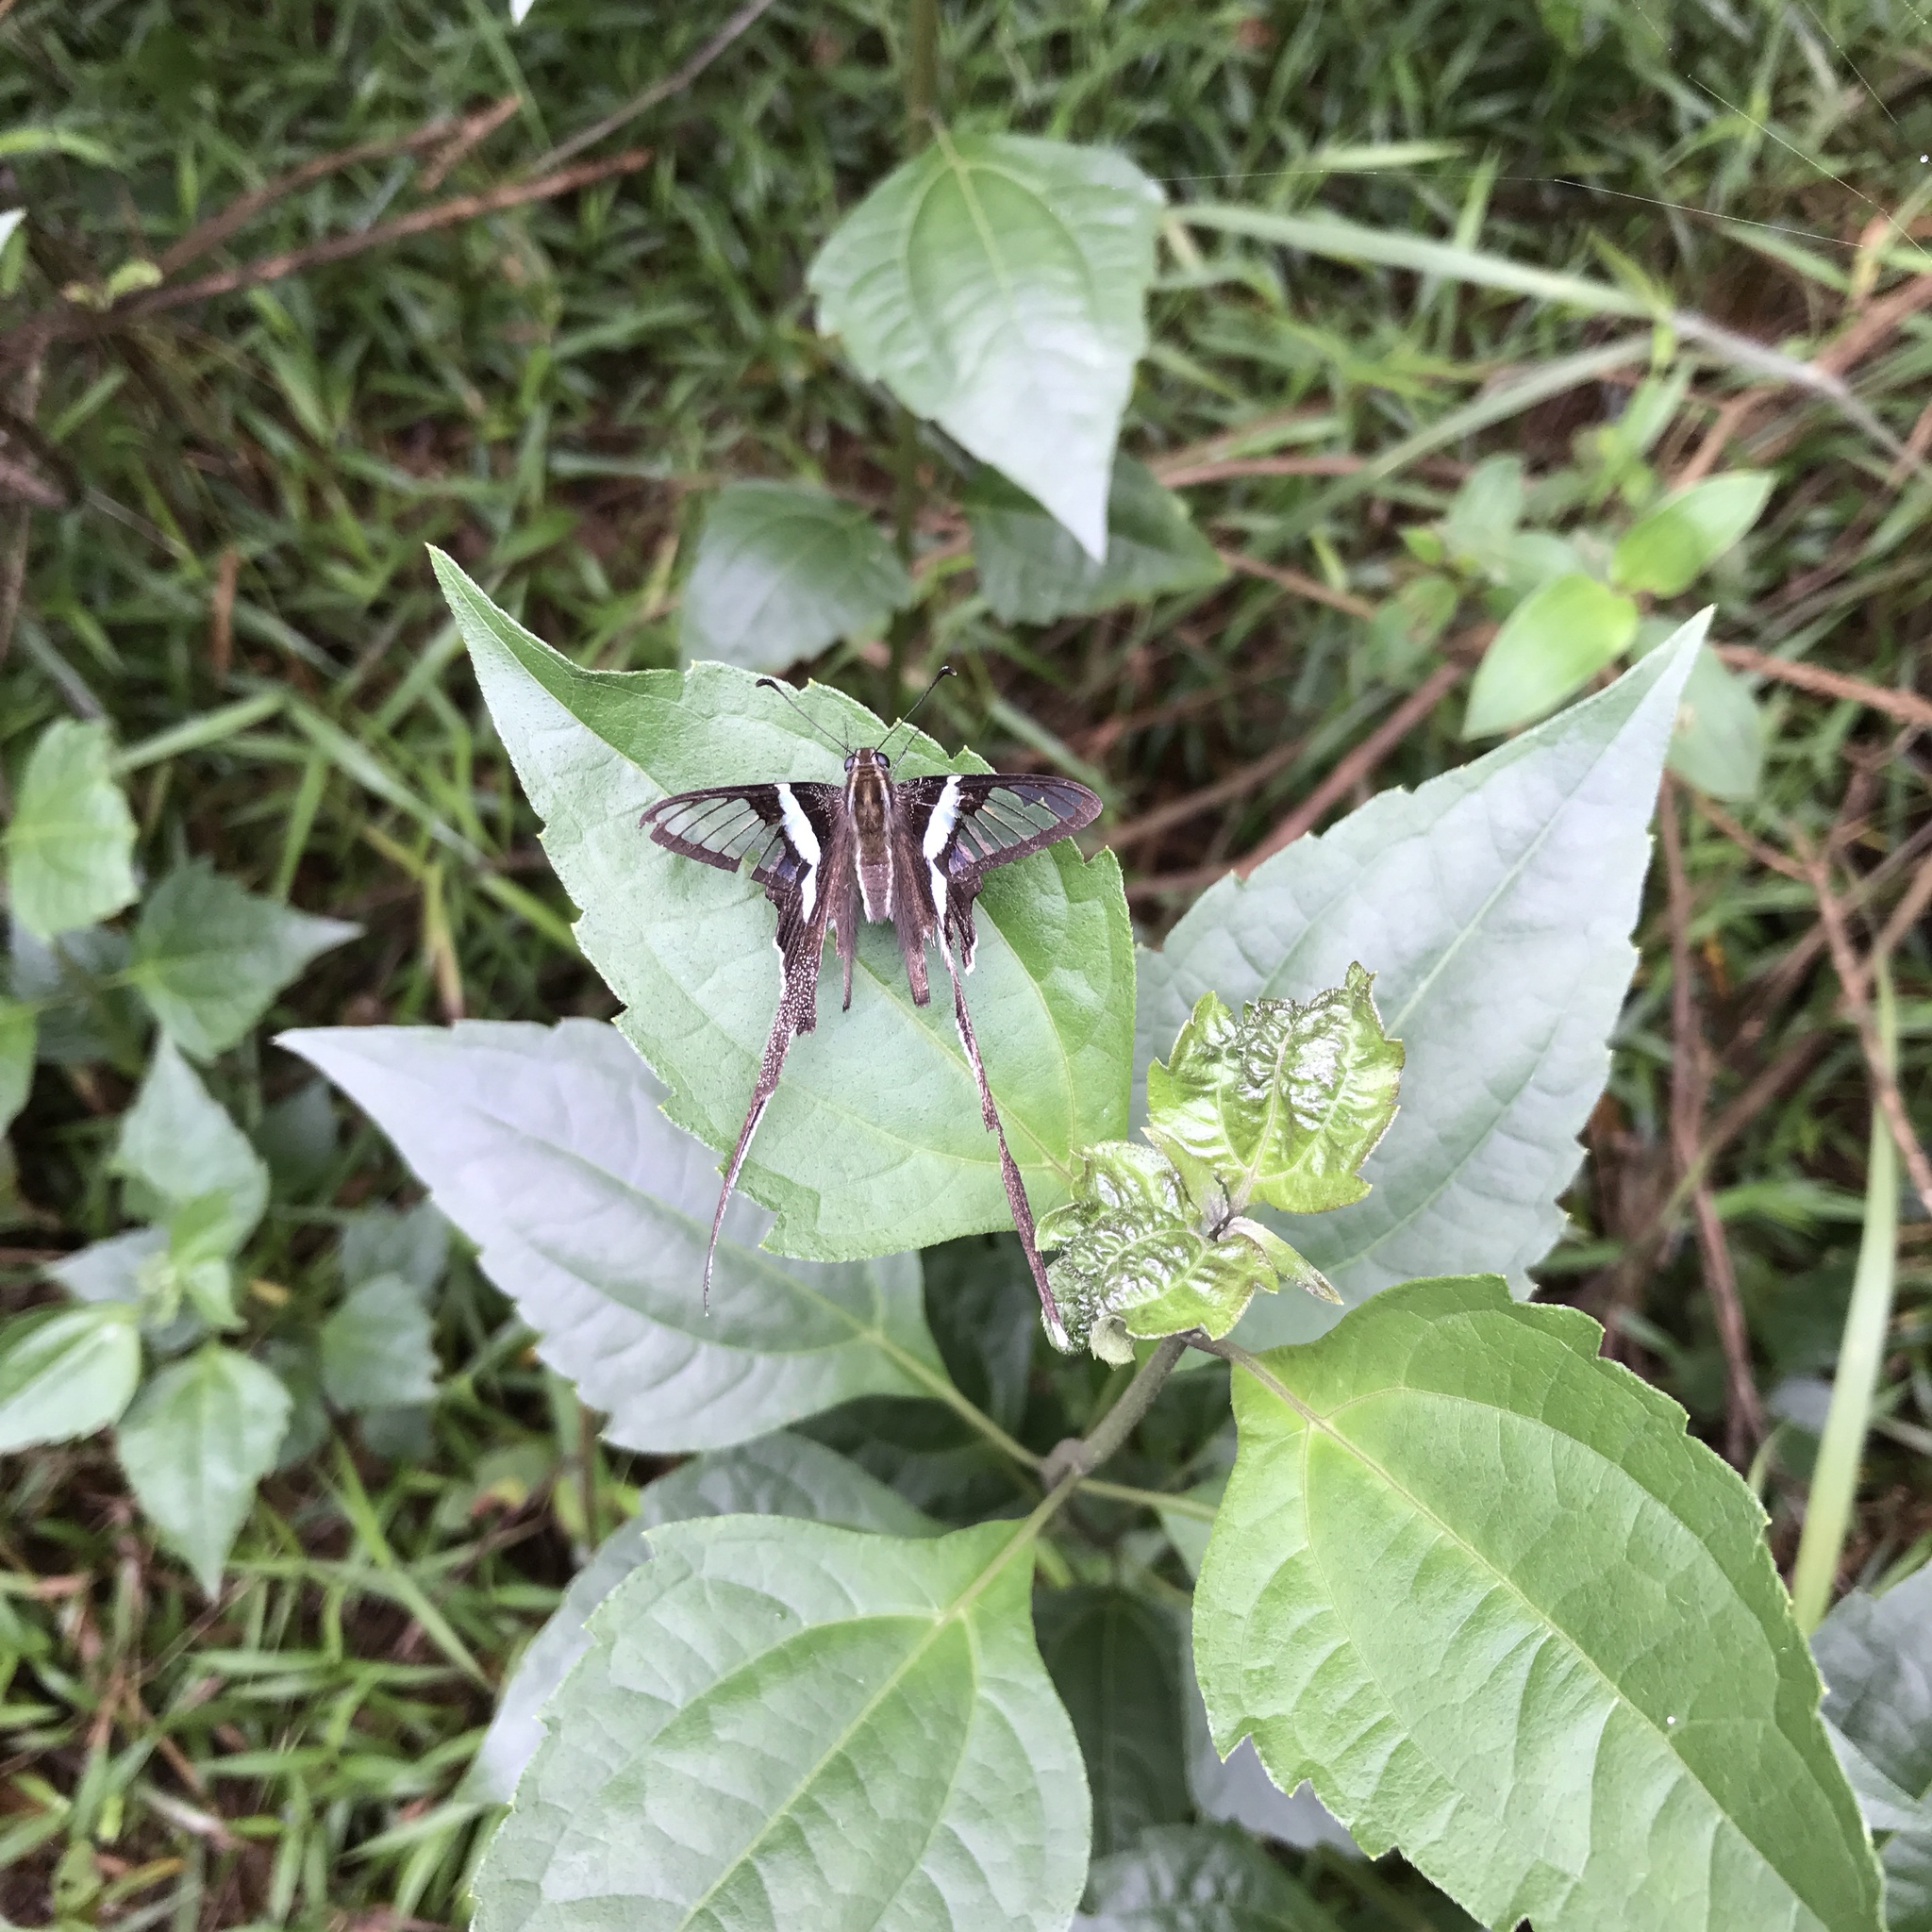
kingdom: Animalia
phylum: Arthropoda
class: Insecta
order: Lepidoptera
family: Papilionidae
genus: Lamproptera
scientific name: Lamproptera meges
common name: Green dragontail
